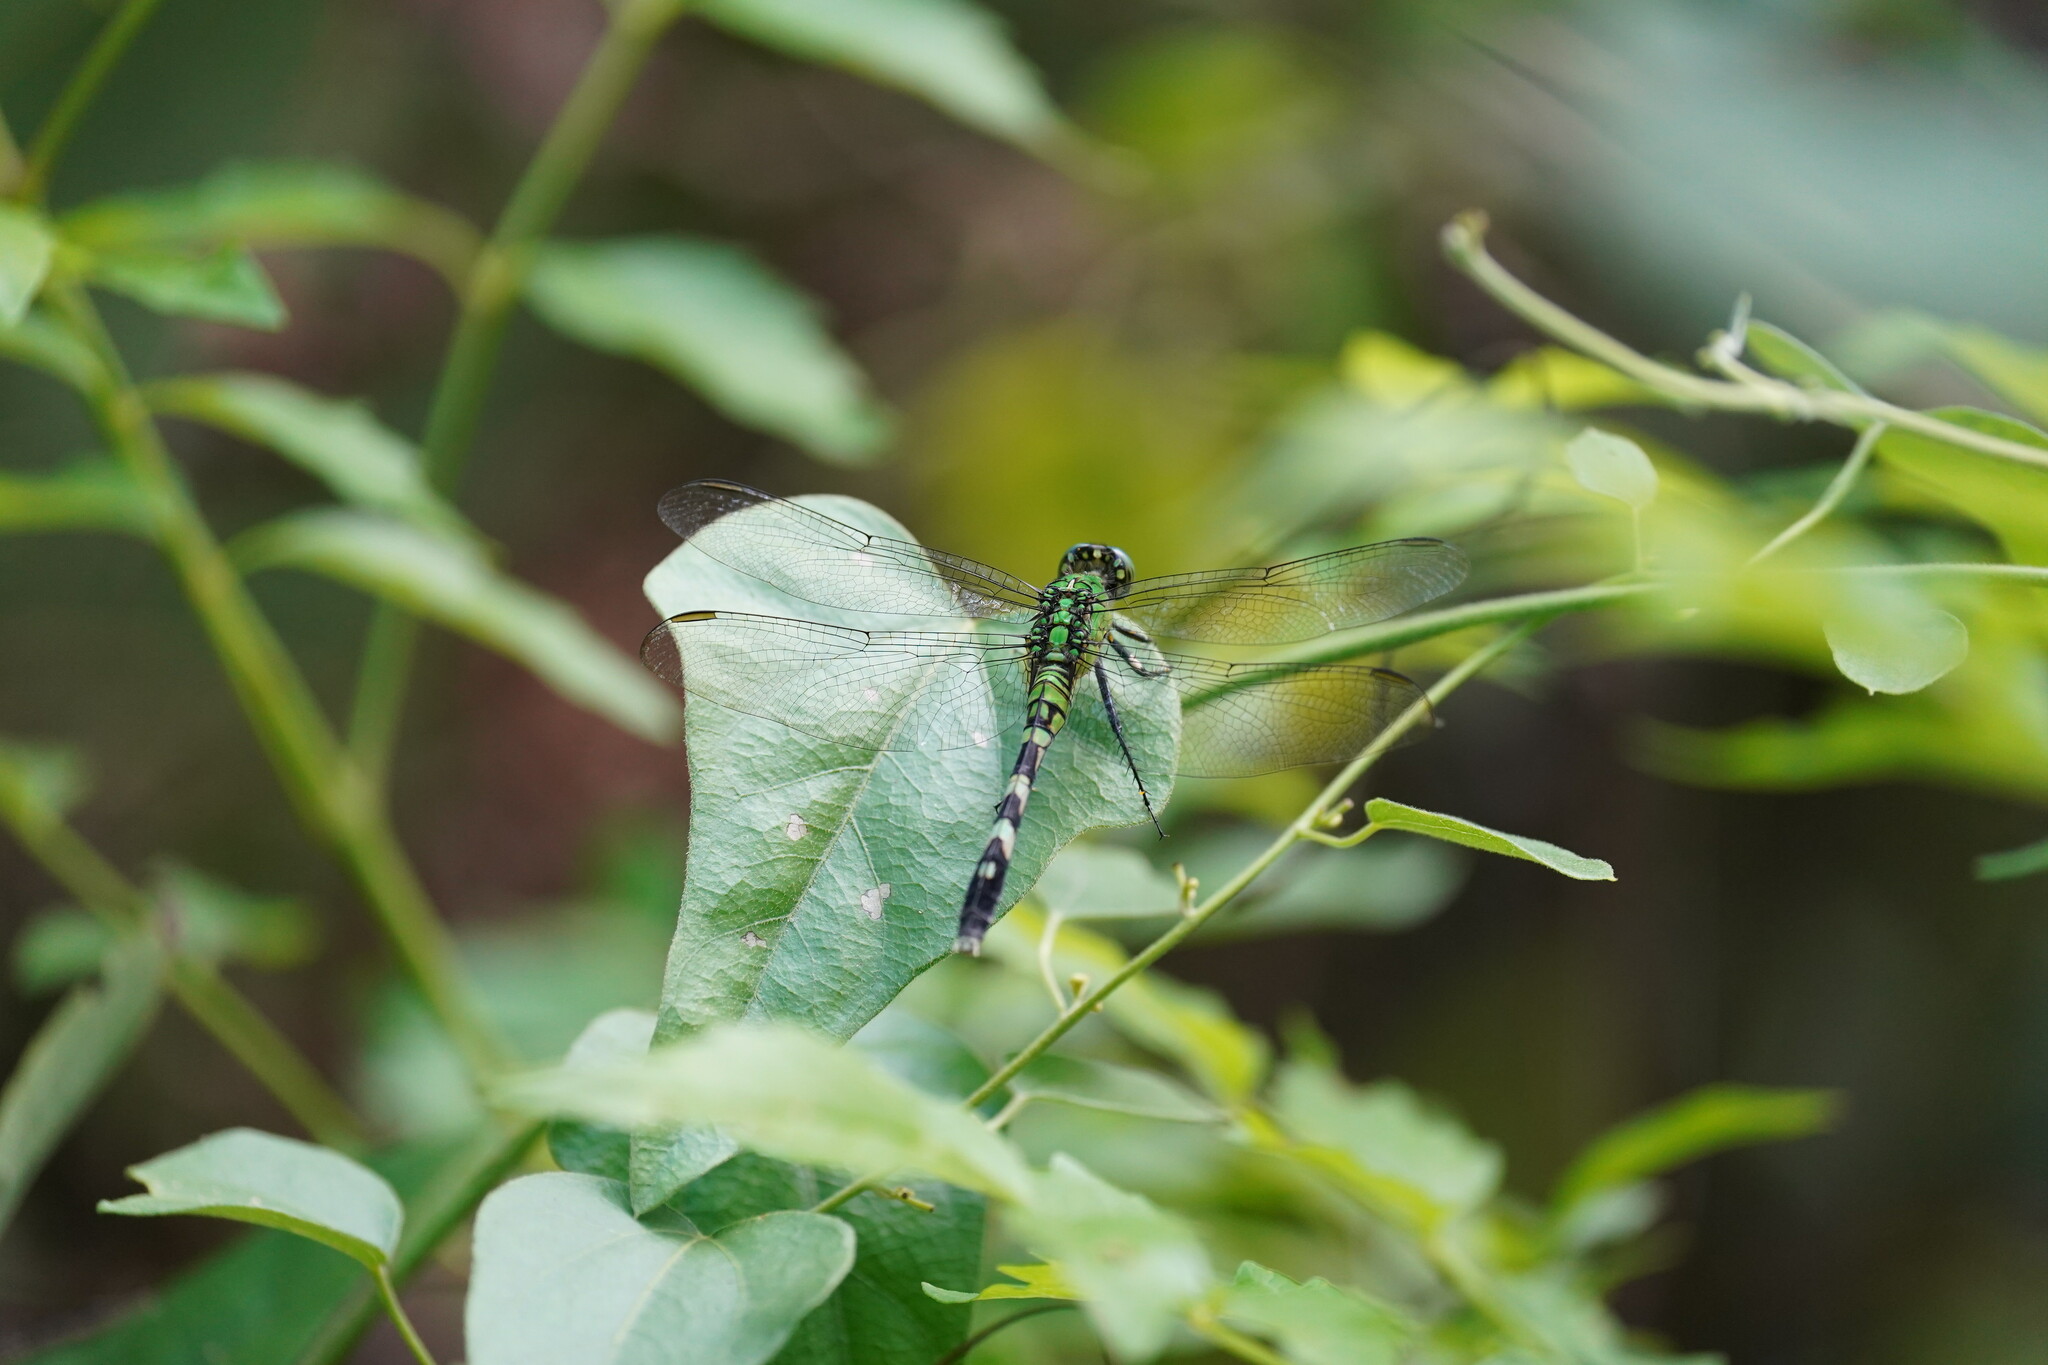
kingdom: Animalia
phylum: Arthropoda
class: Insecta
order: Odonata
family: Libellulidae
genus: Erythemis
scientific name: Erythemis simplicicollis
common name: Eastern pondhawk
